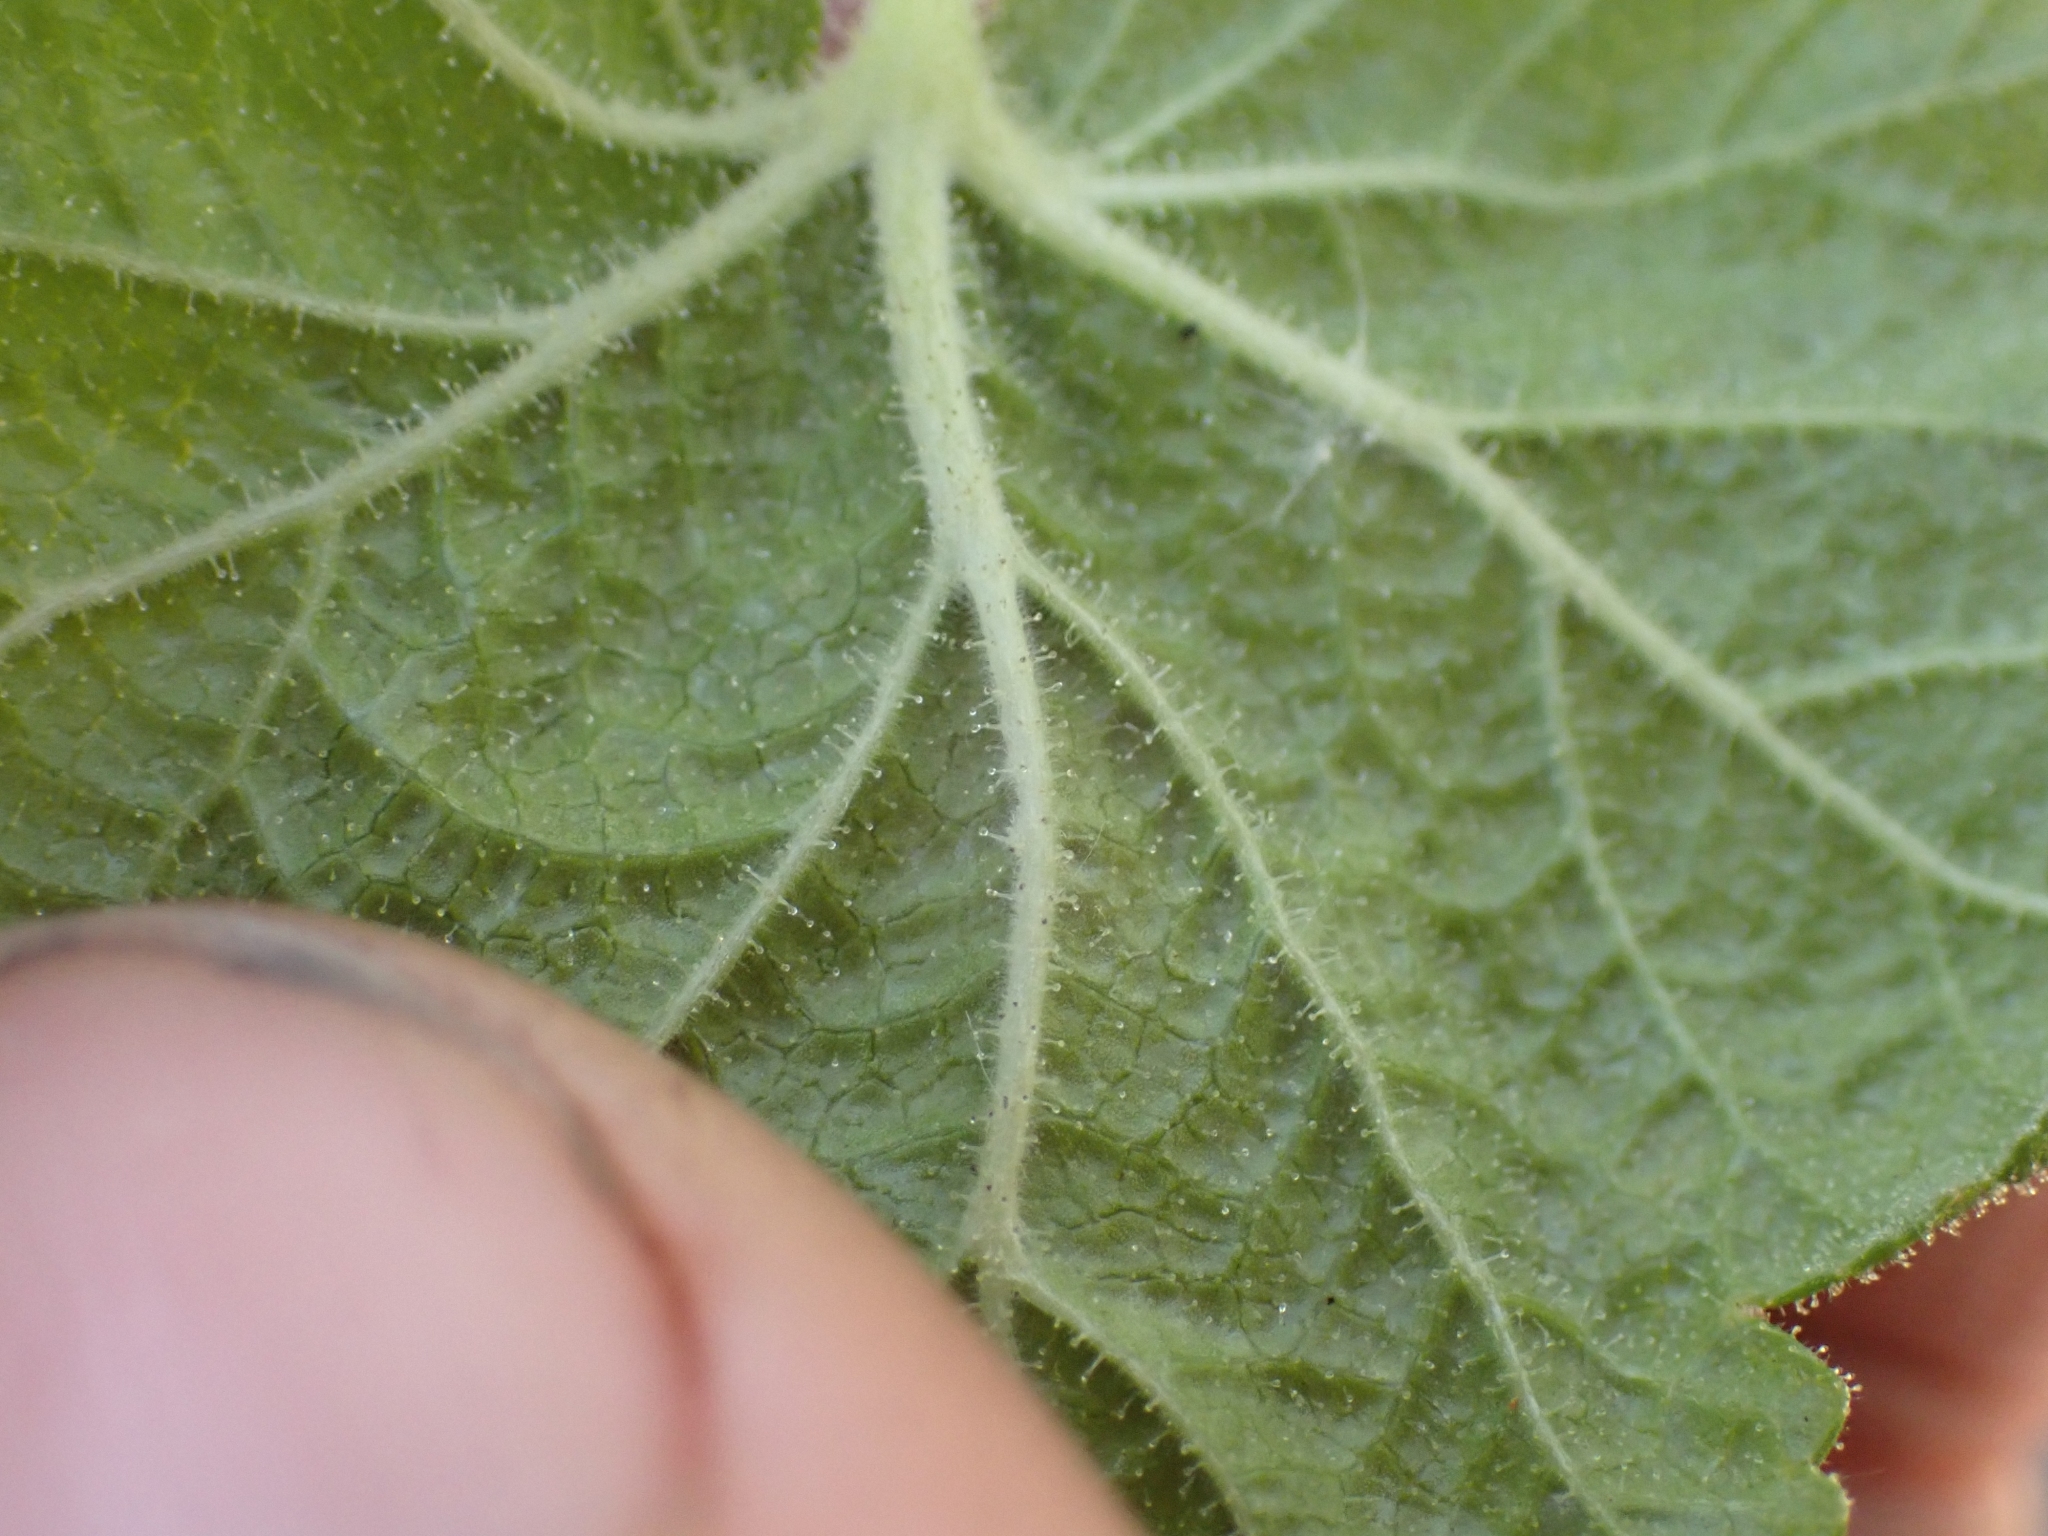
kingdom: Plantae
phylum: Tracheophyta
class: Magnoliopsida
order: Saxifragales
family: Grossulariaceae
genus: Ribes
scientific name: Ribes viscosissimum
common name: Sticky currant
